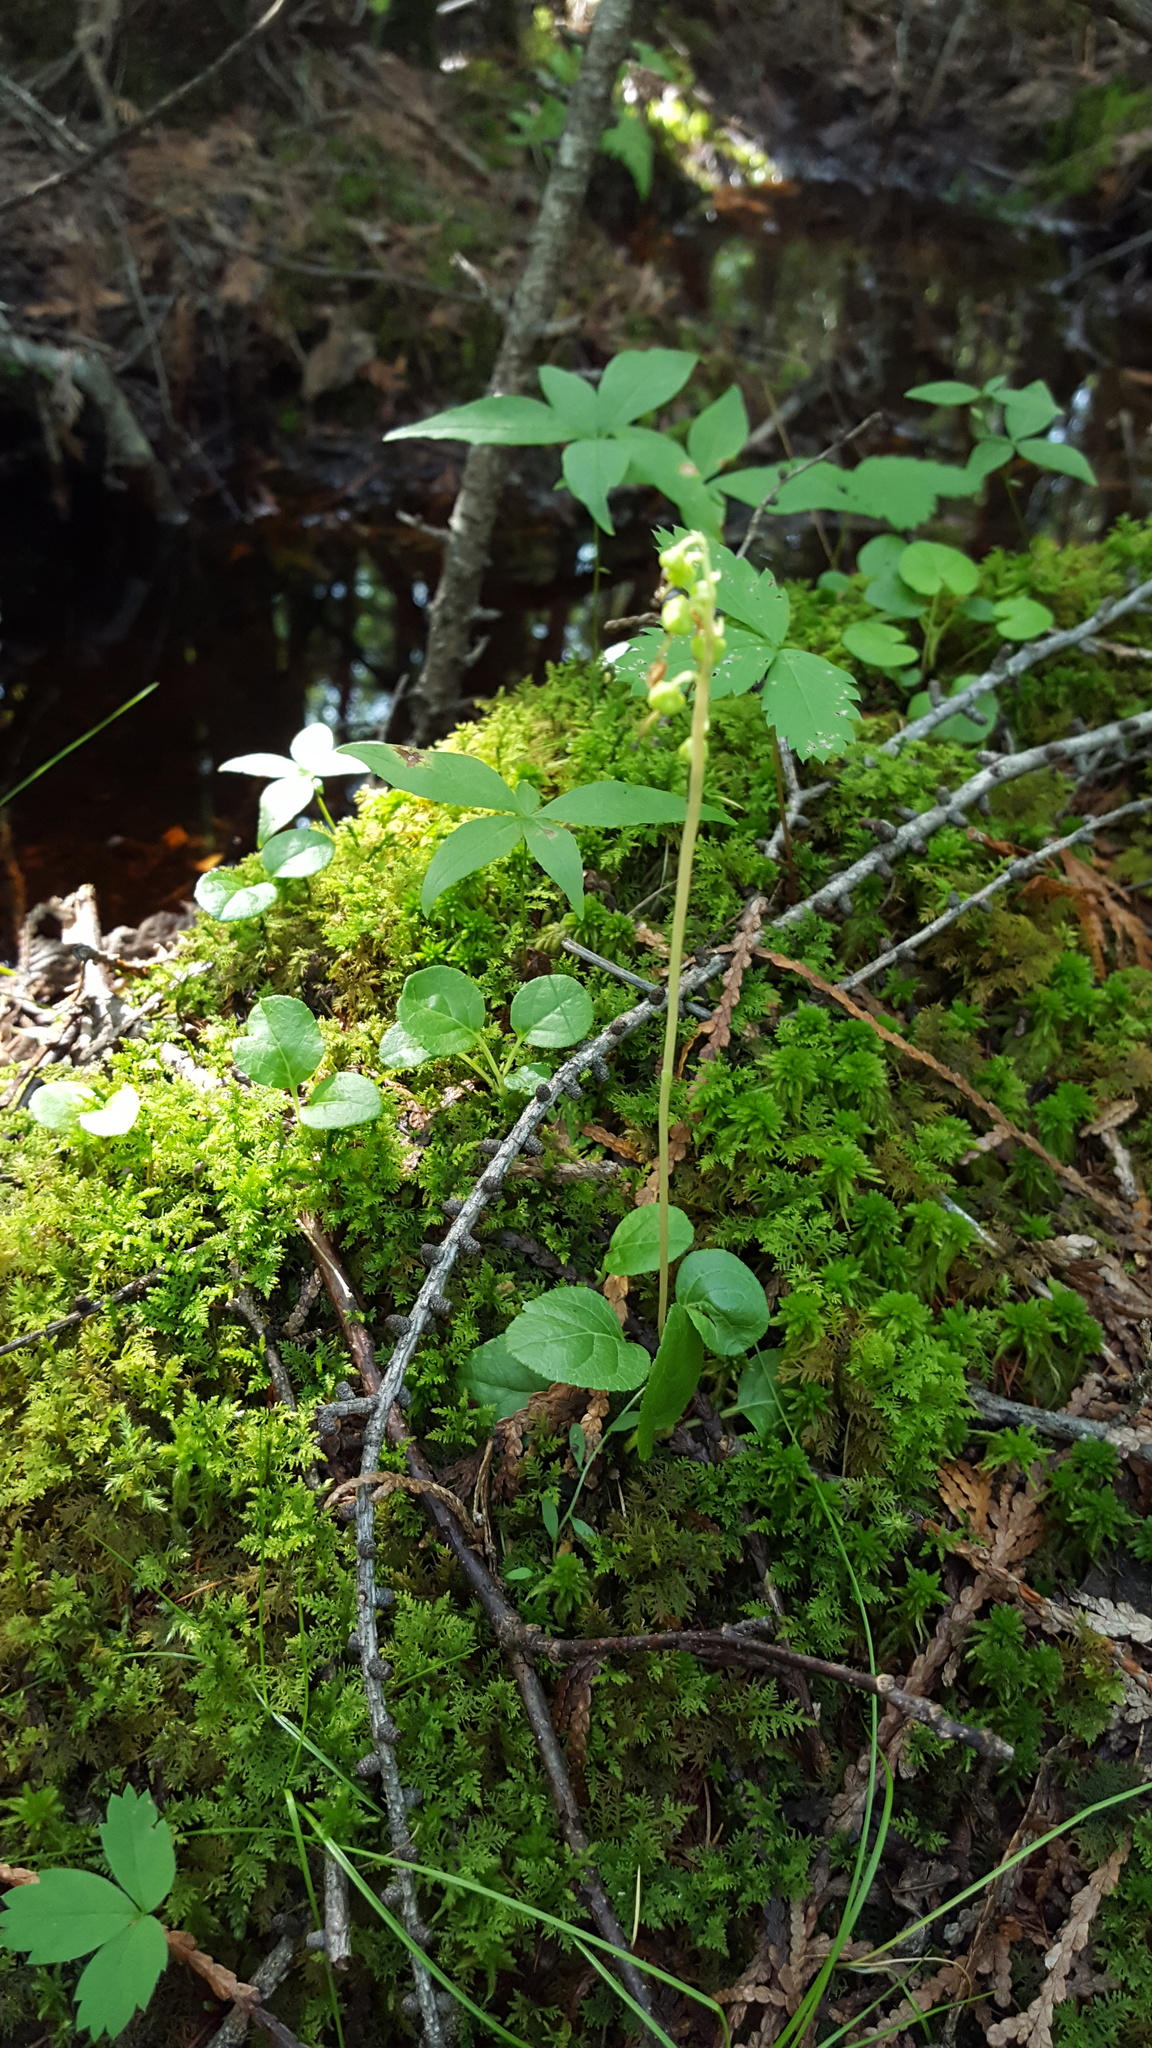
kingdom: Plantae
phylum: Tracheophyta
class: Magnoliopsida
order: Ericales
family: Ericaceae
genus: Orthilia
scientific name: Orthilia secunda
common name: One-sided orthilia
